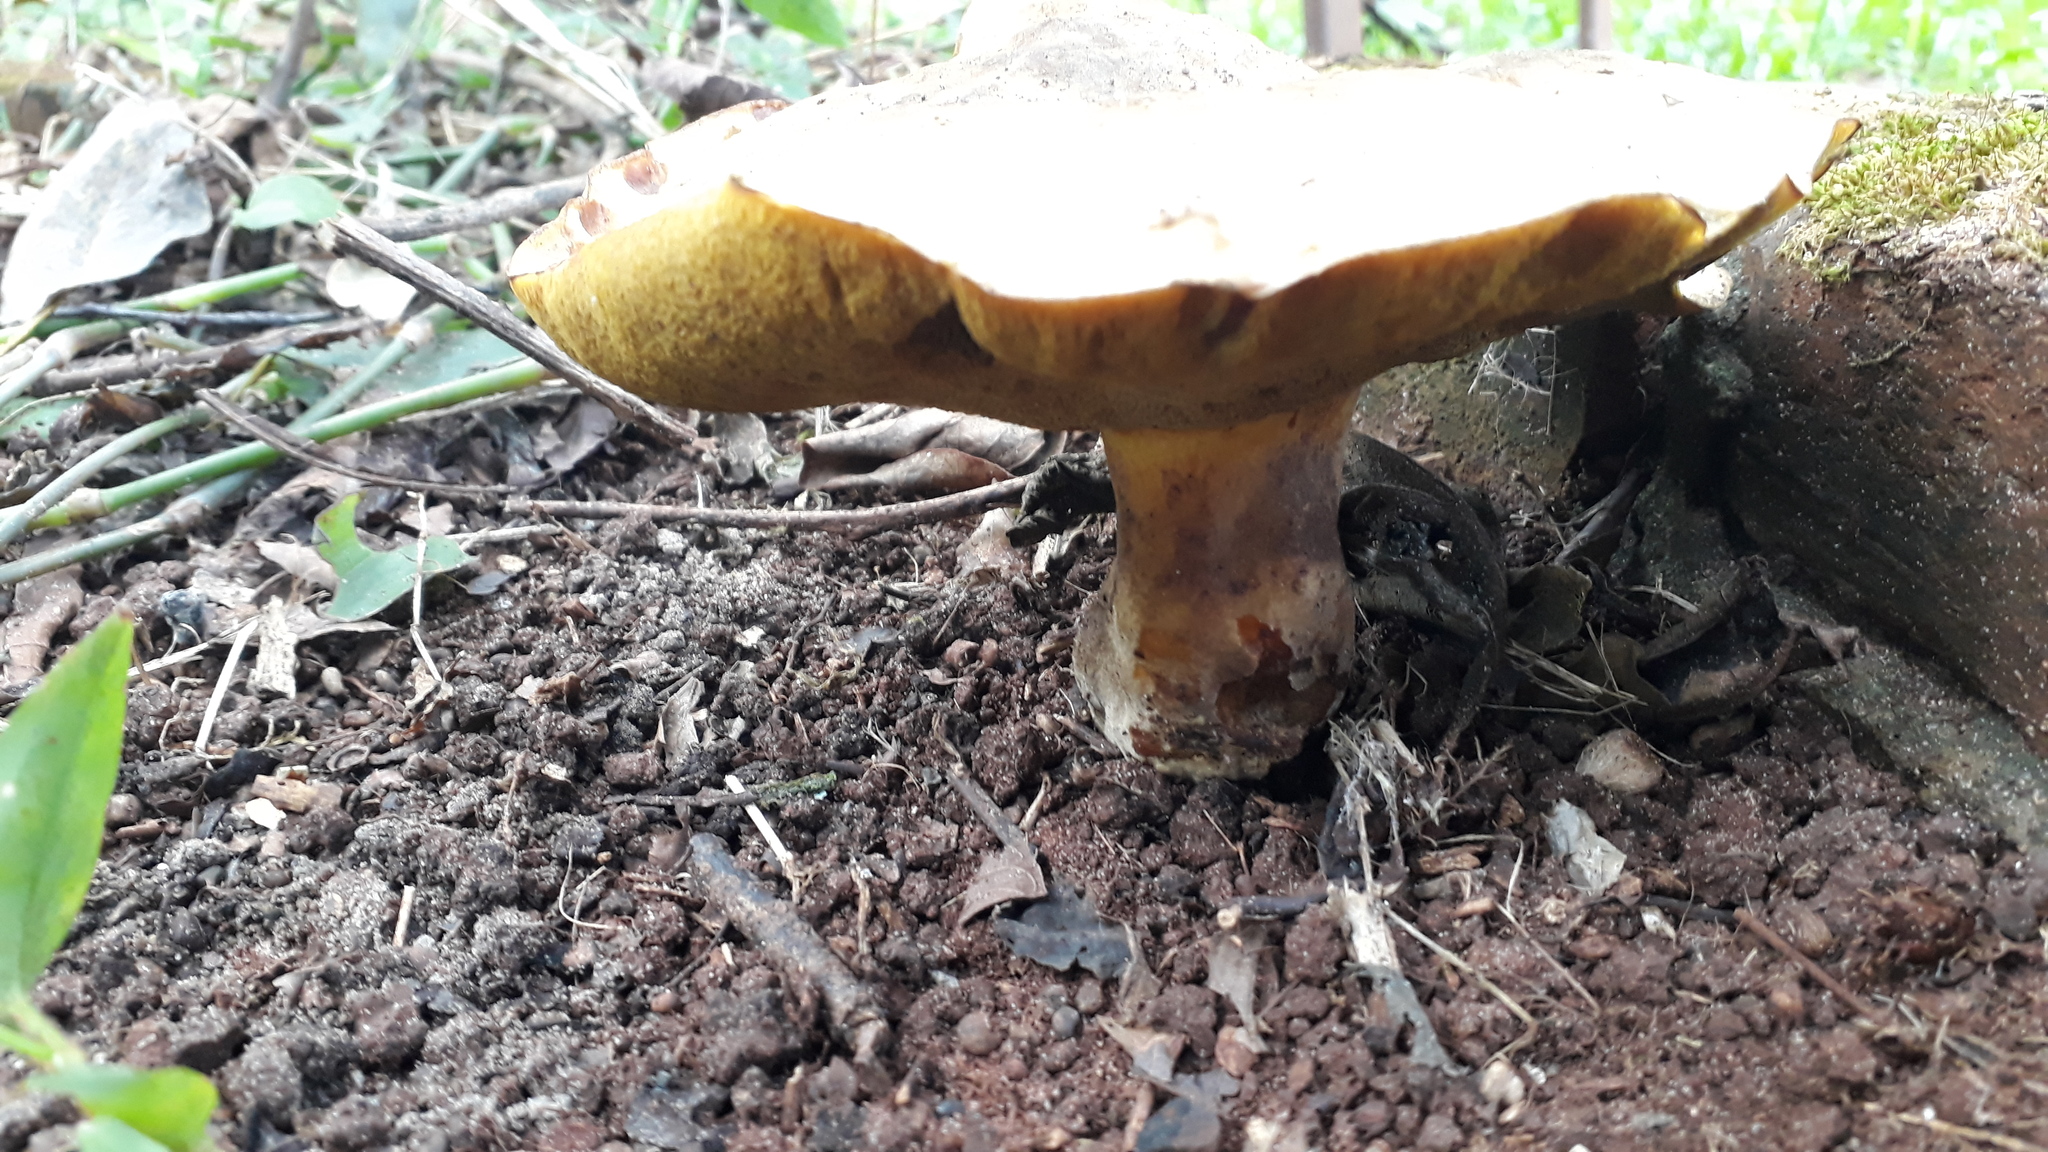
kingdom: Fungi
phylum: Basidiomycota
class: Agaricomycetes
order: Boletales
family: Suillaceae
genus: Suillus
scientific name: Suillus granulatus
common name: Weeping bolete
